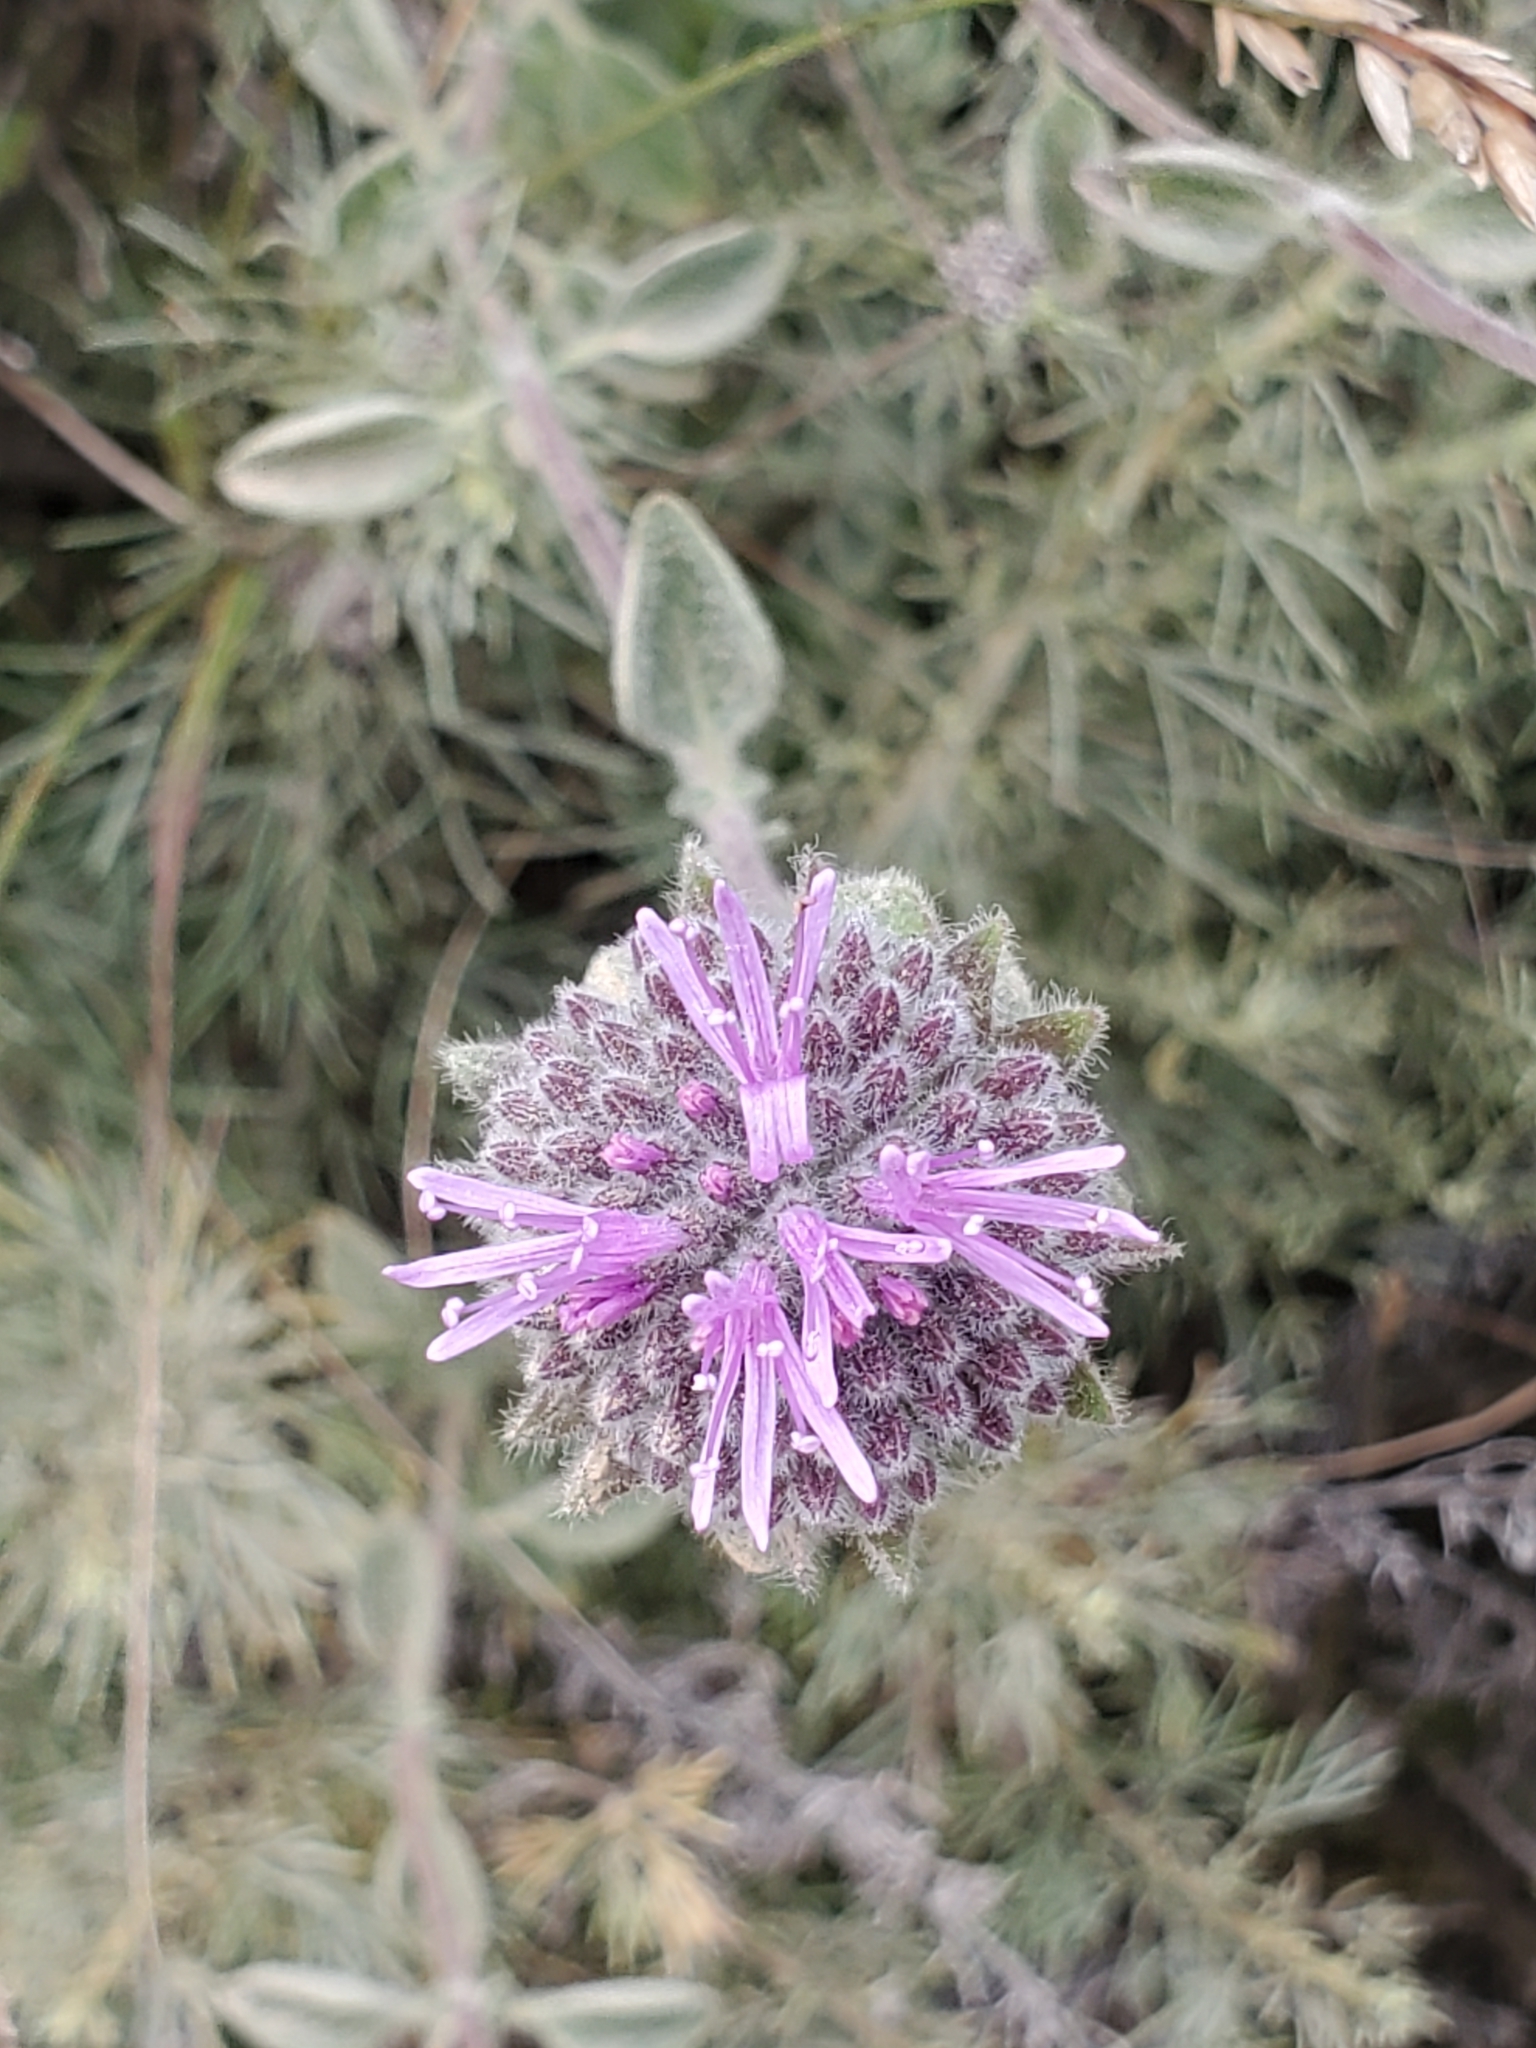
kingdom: Plantae
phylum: Tracheophyta
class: Magnoliopsida
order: Lamiales
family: Lamiaceae
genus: Monardella
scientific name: Monardella odoratissima
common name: Pacific monardella
